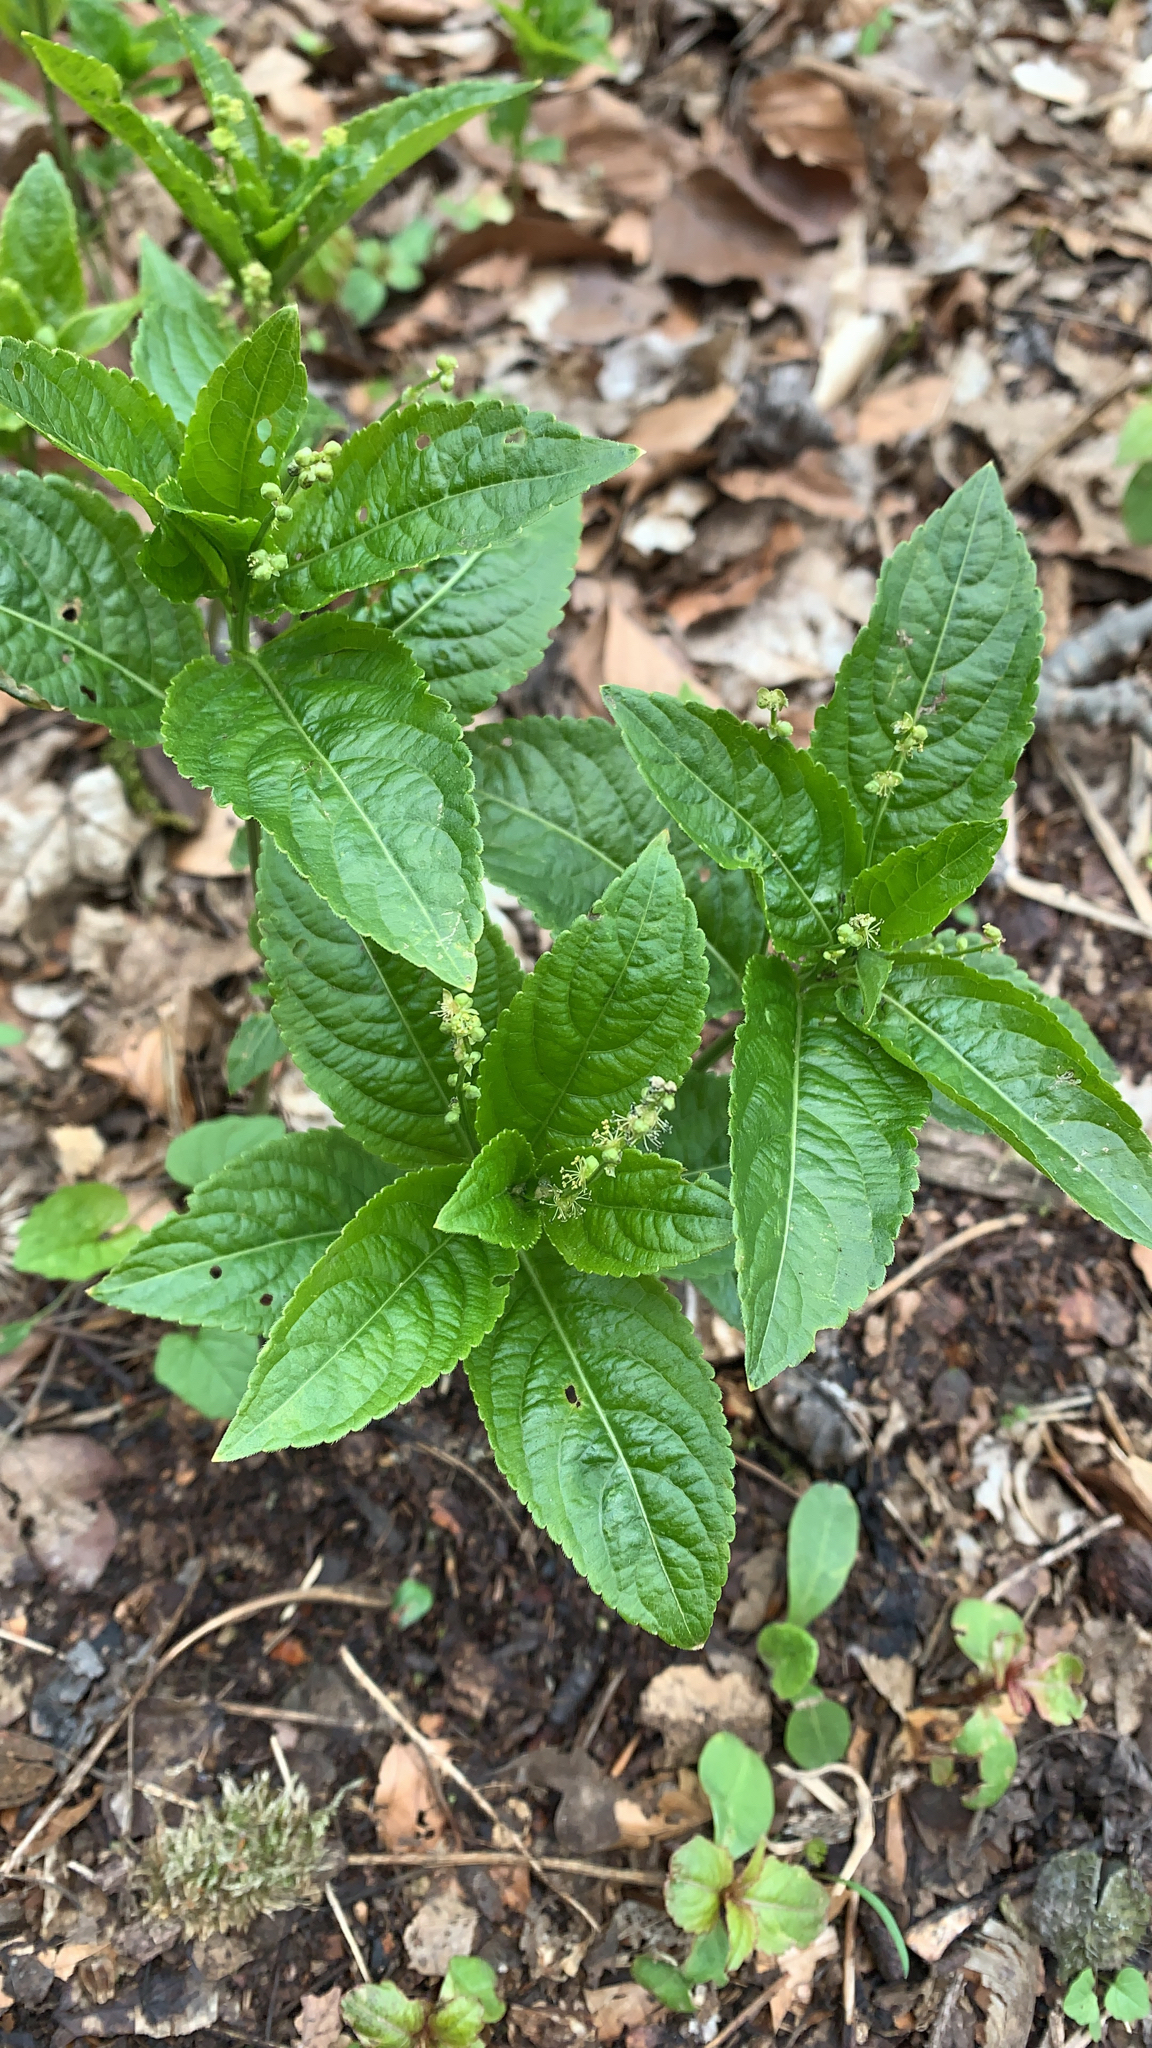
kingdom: Plantae
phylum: Tracheophyta
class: Magnoliopsida
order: Malpighiales
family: Euphorbiaceae
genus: Mercurialis
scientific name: Mercurialis perennis
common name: Dog mercury
